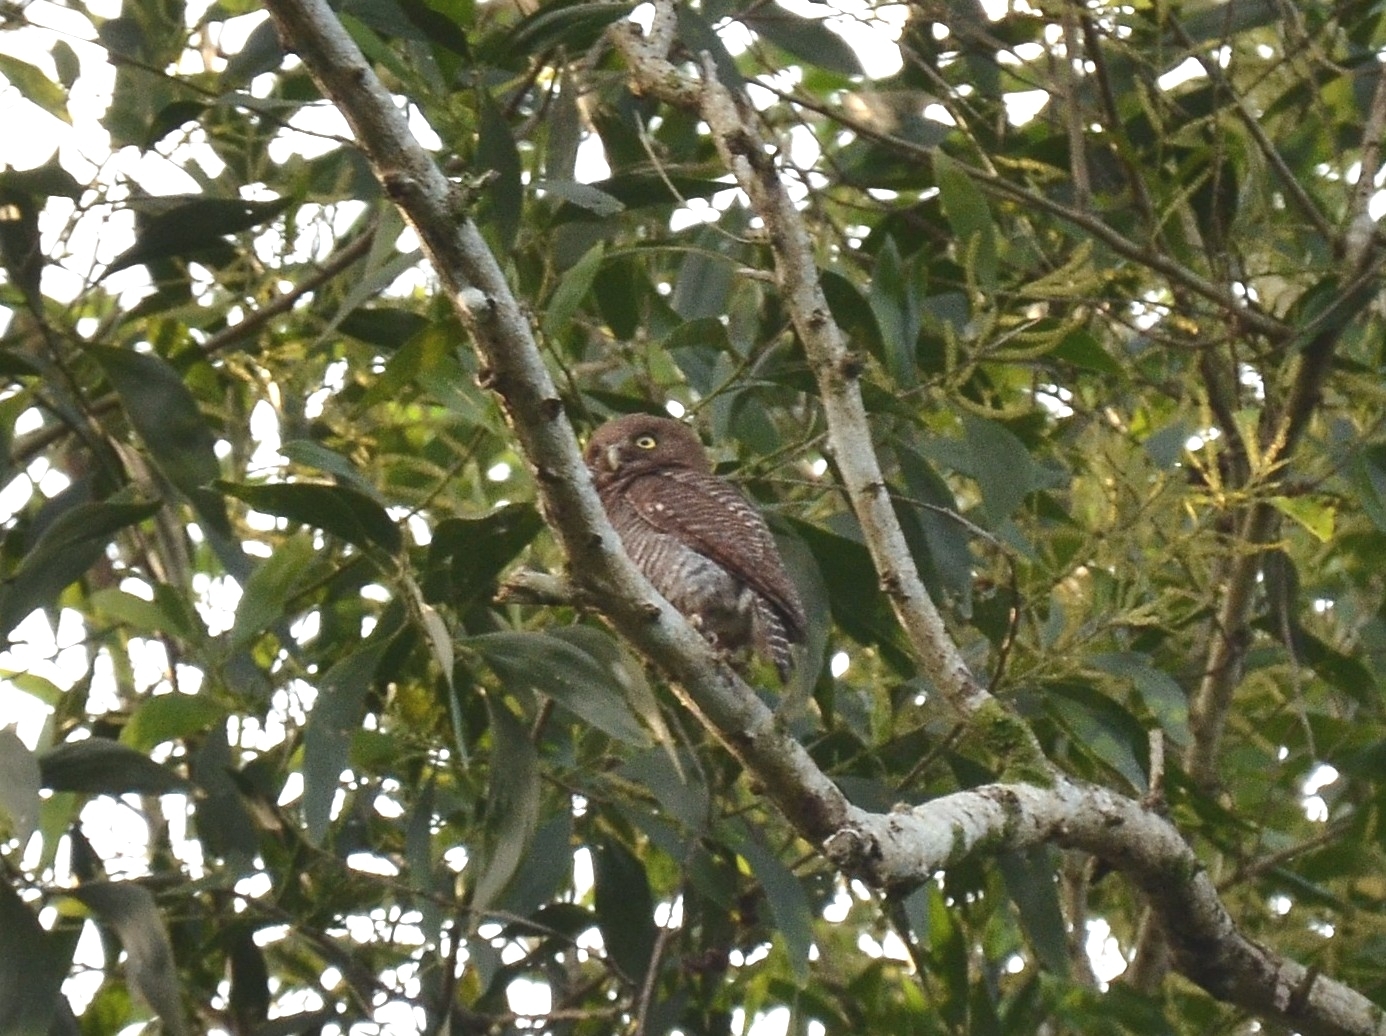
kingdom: Animalia
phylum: Chordata
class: Aves
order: Strigiformes
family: Strigidae
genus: Glaucidium
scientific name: Glaucidium radiatum
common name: Jungle owlet
